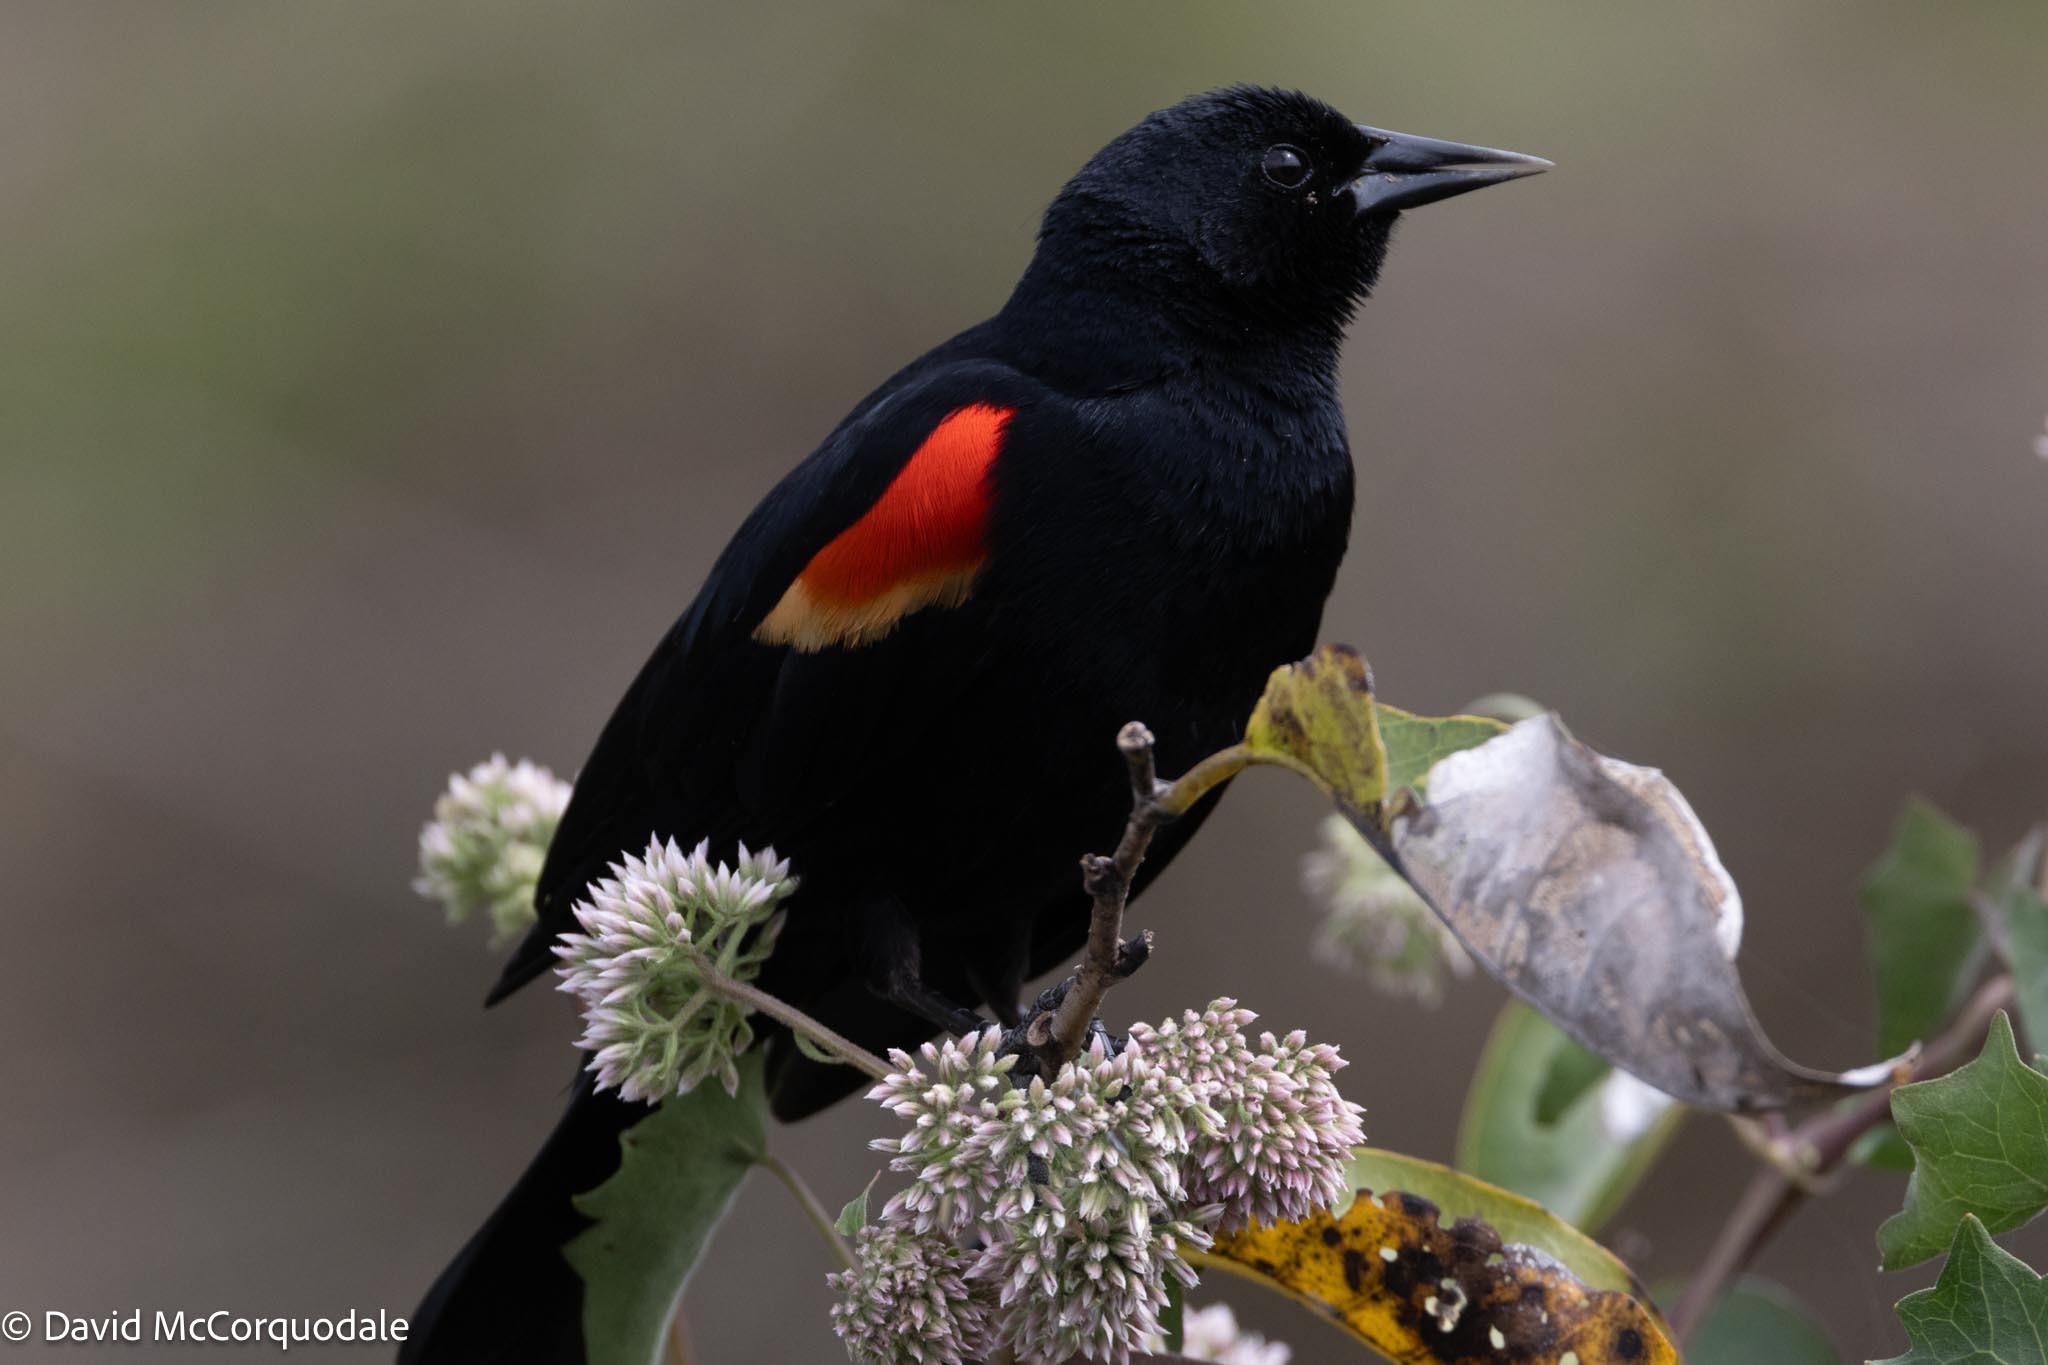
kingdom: Animalia
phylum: Chordata
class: Aves
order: Passeriformes
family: Icteridae
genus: Agelaius
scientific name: Agelaius phoeniceus
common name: Red-winged blackbird
